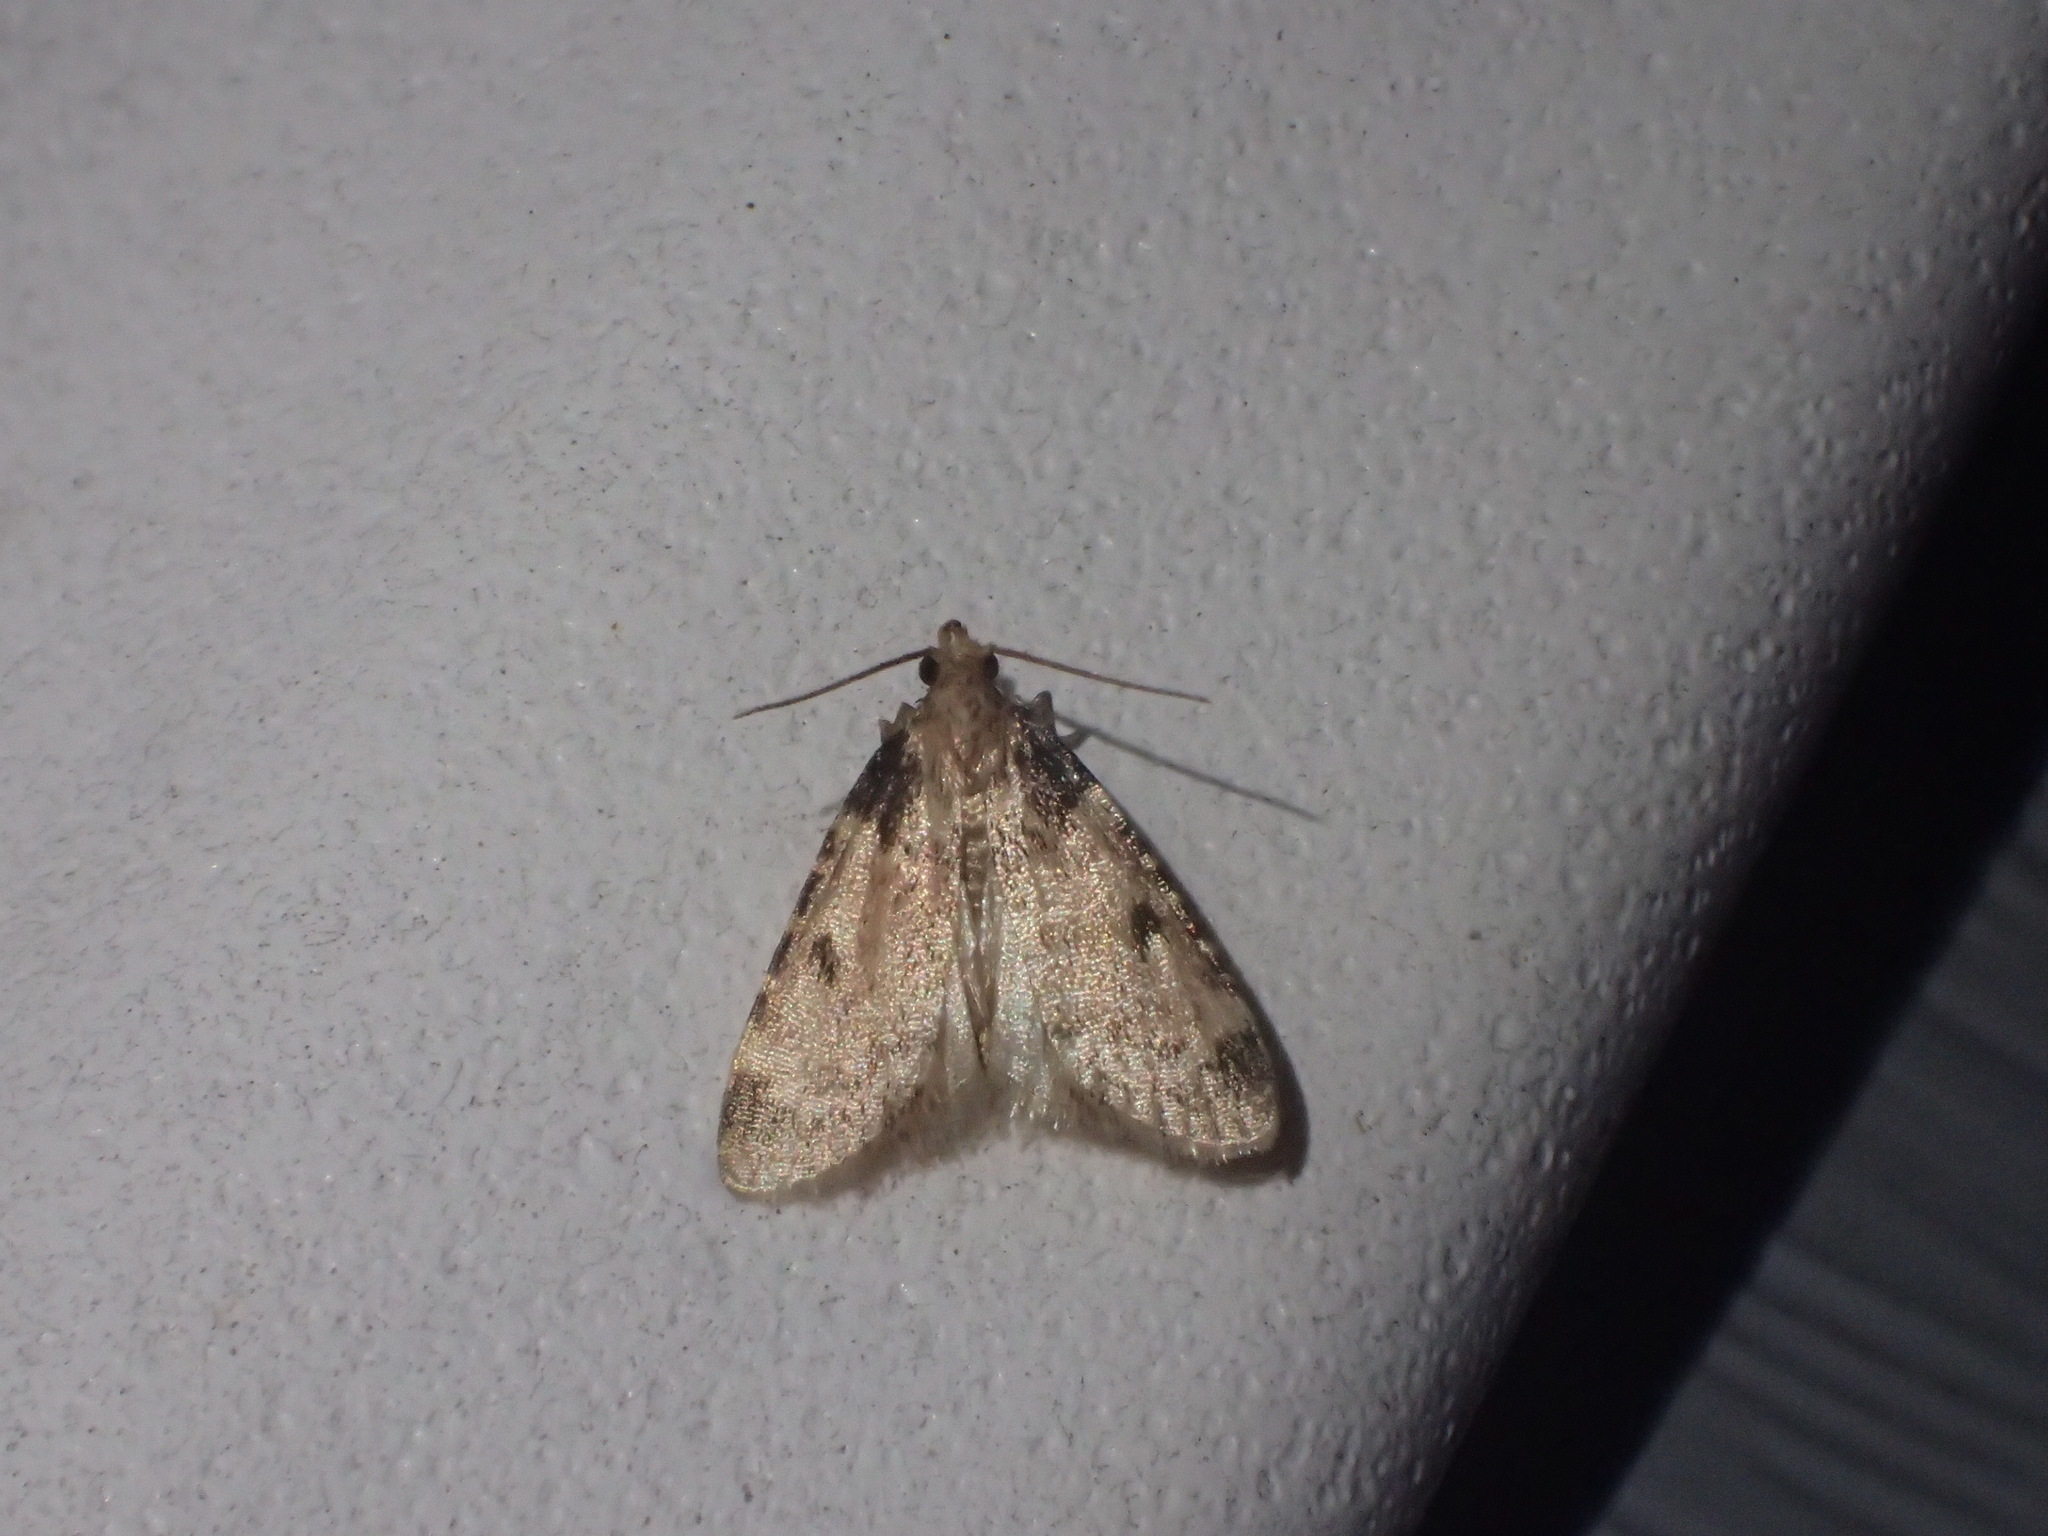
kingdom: Animalia
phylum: Arthropoda
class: Insecta
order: Lepidoptera
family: Pyralidae
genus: Aglossa
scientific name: Aglossa costiferalis
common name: Calico pyralid moth
